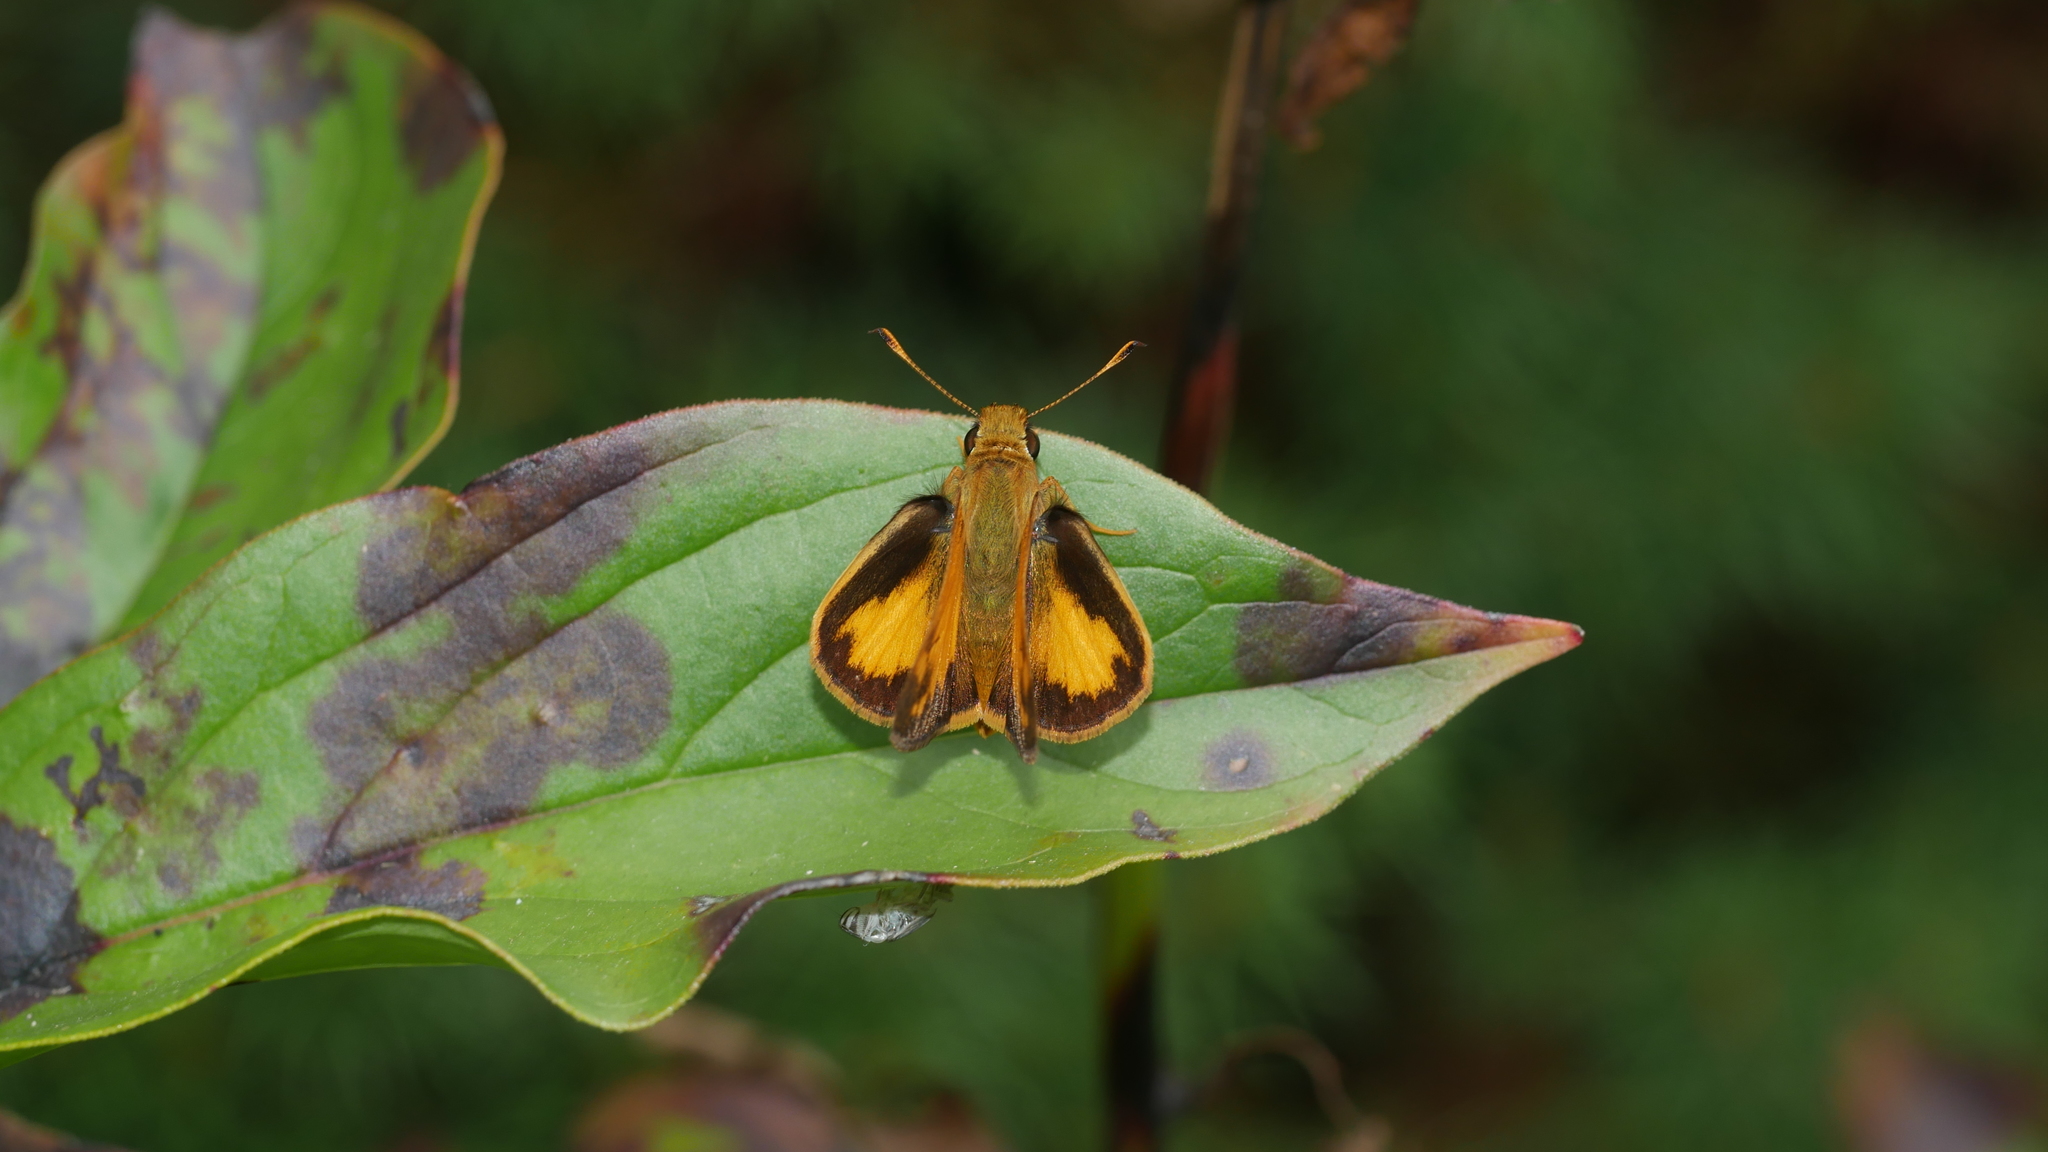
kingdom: Animalia
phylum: Arthropoda
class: Insecta
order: Lepidoptera
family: Hesperiidae
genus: Lon
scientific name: Lon zabulon
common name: Zabulon skipper
